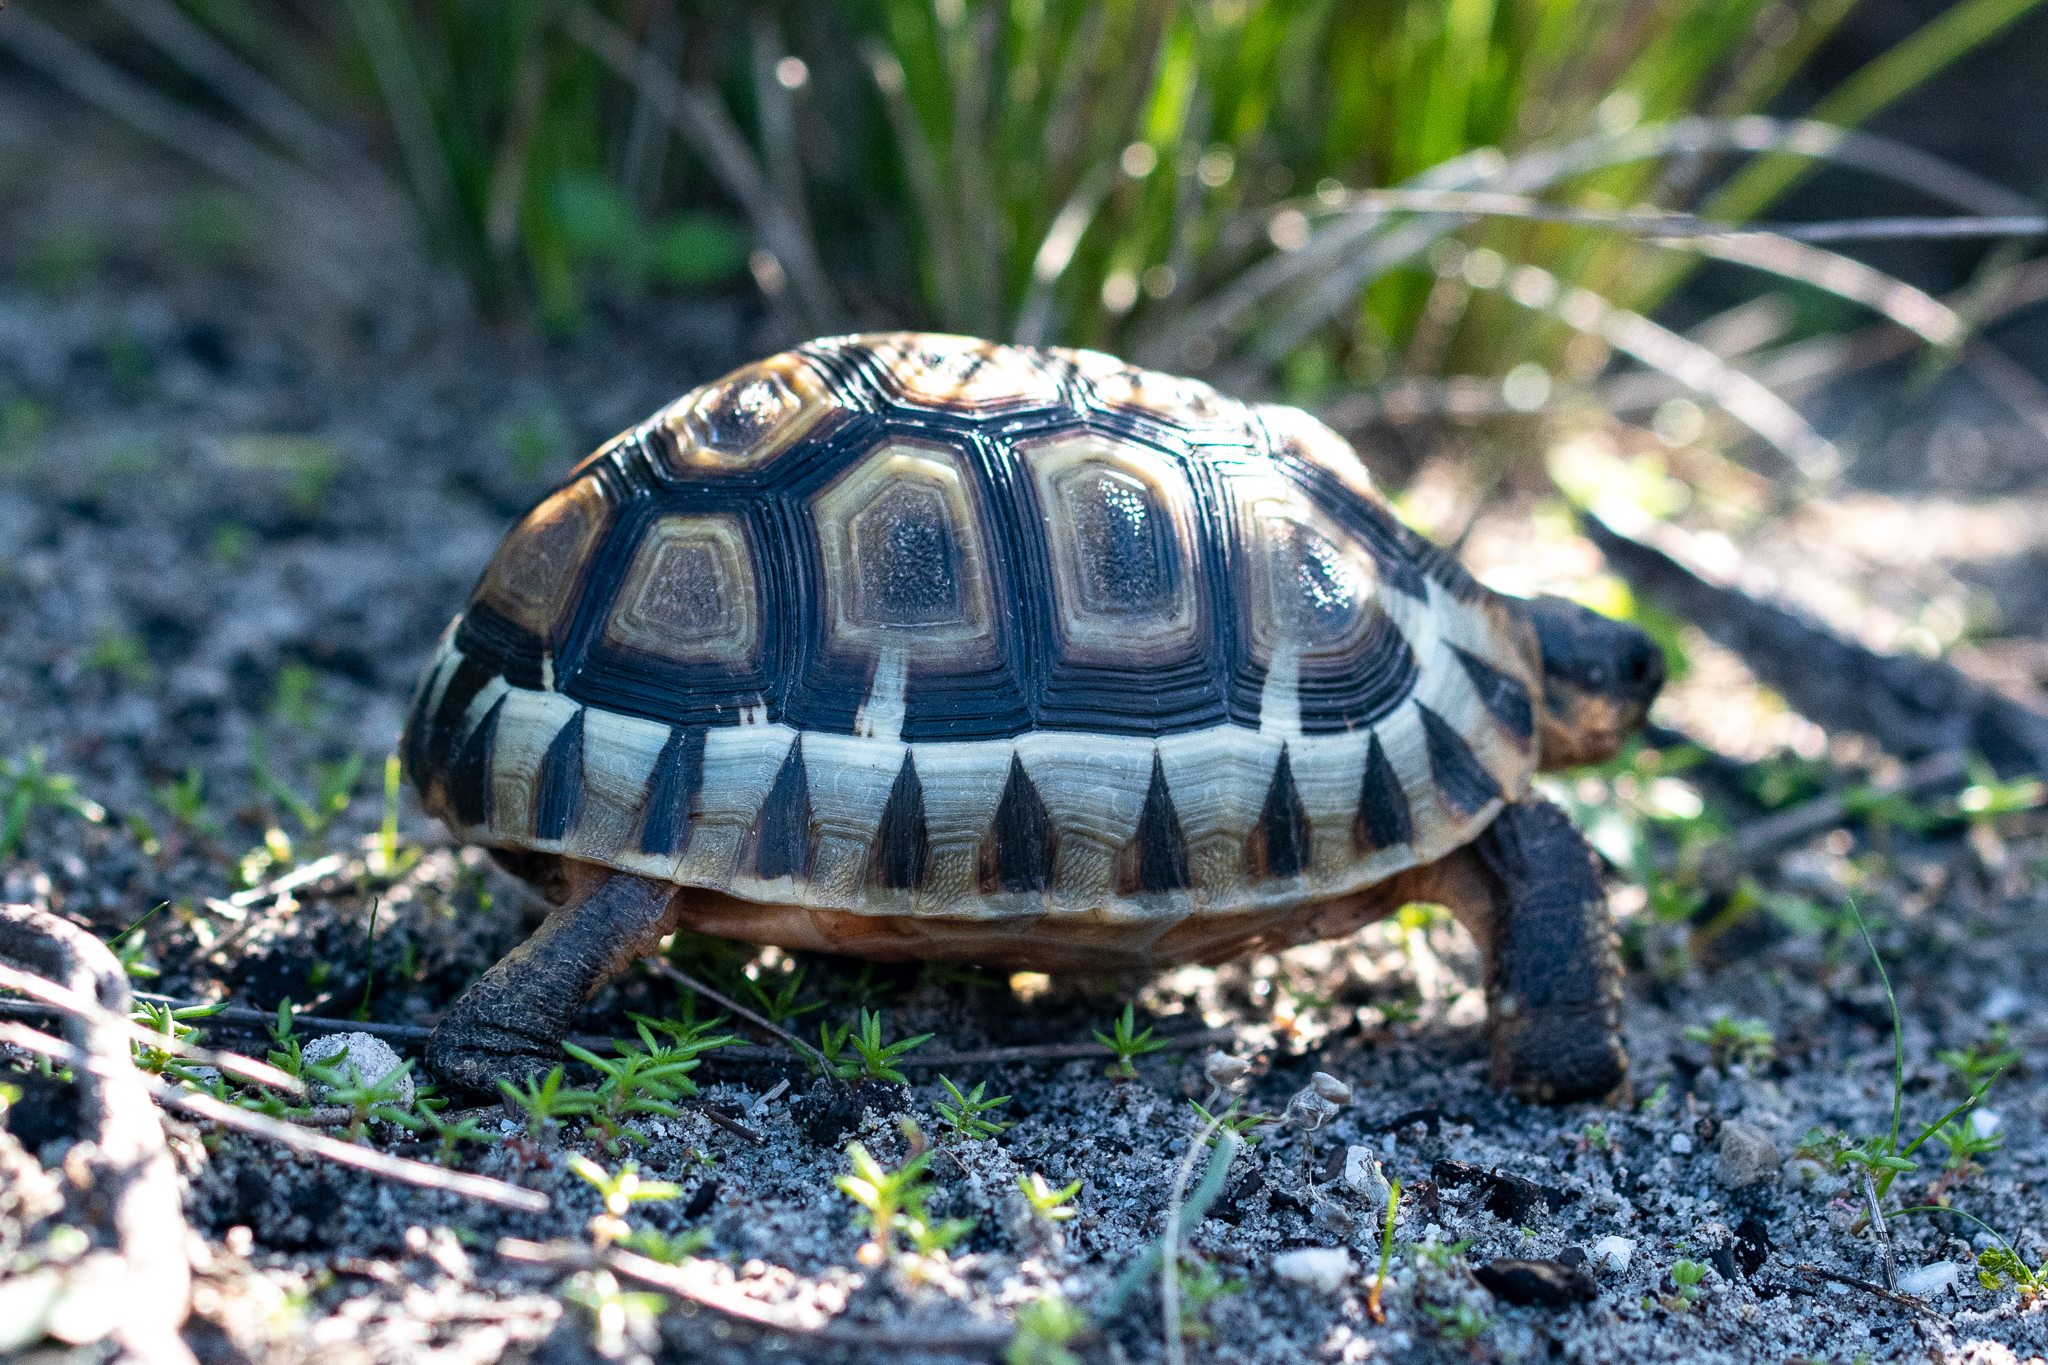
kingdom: Animalia
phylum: Chordata
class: Testudines
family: Testudinidae
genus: Chersina
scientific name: Chersina angulata
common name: South african bowsprit tortoise
